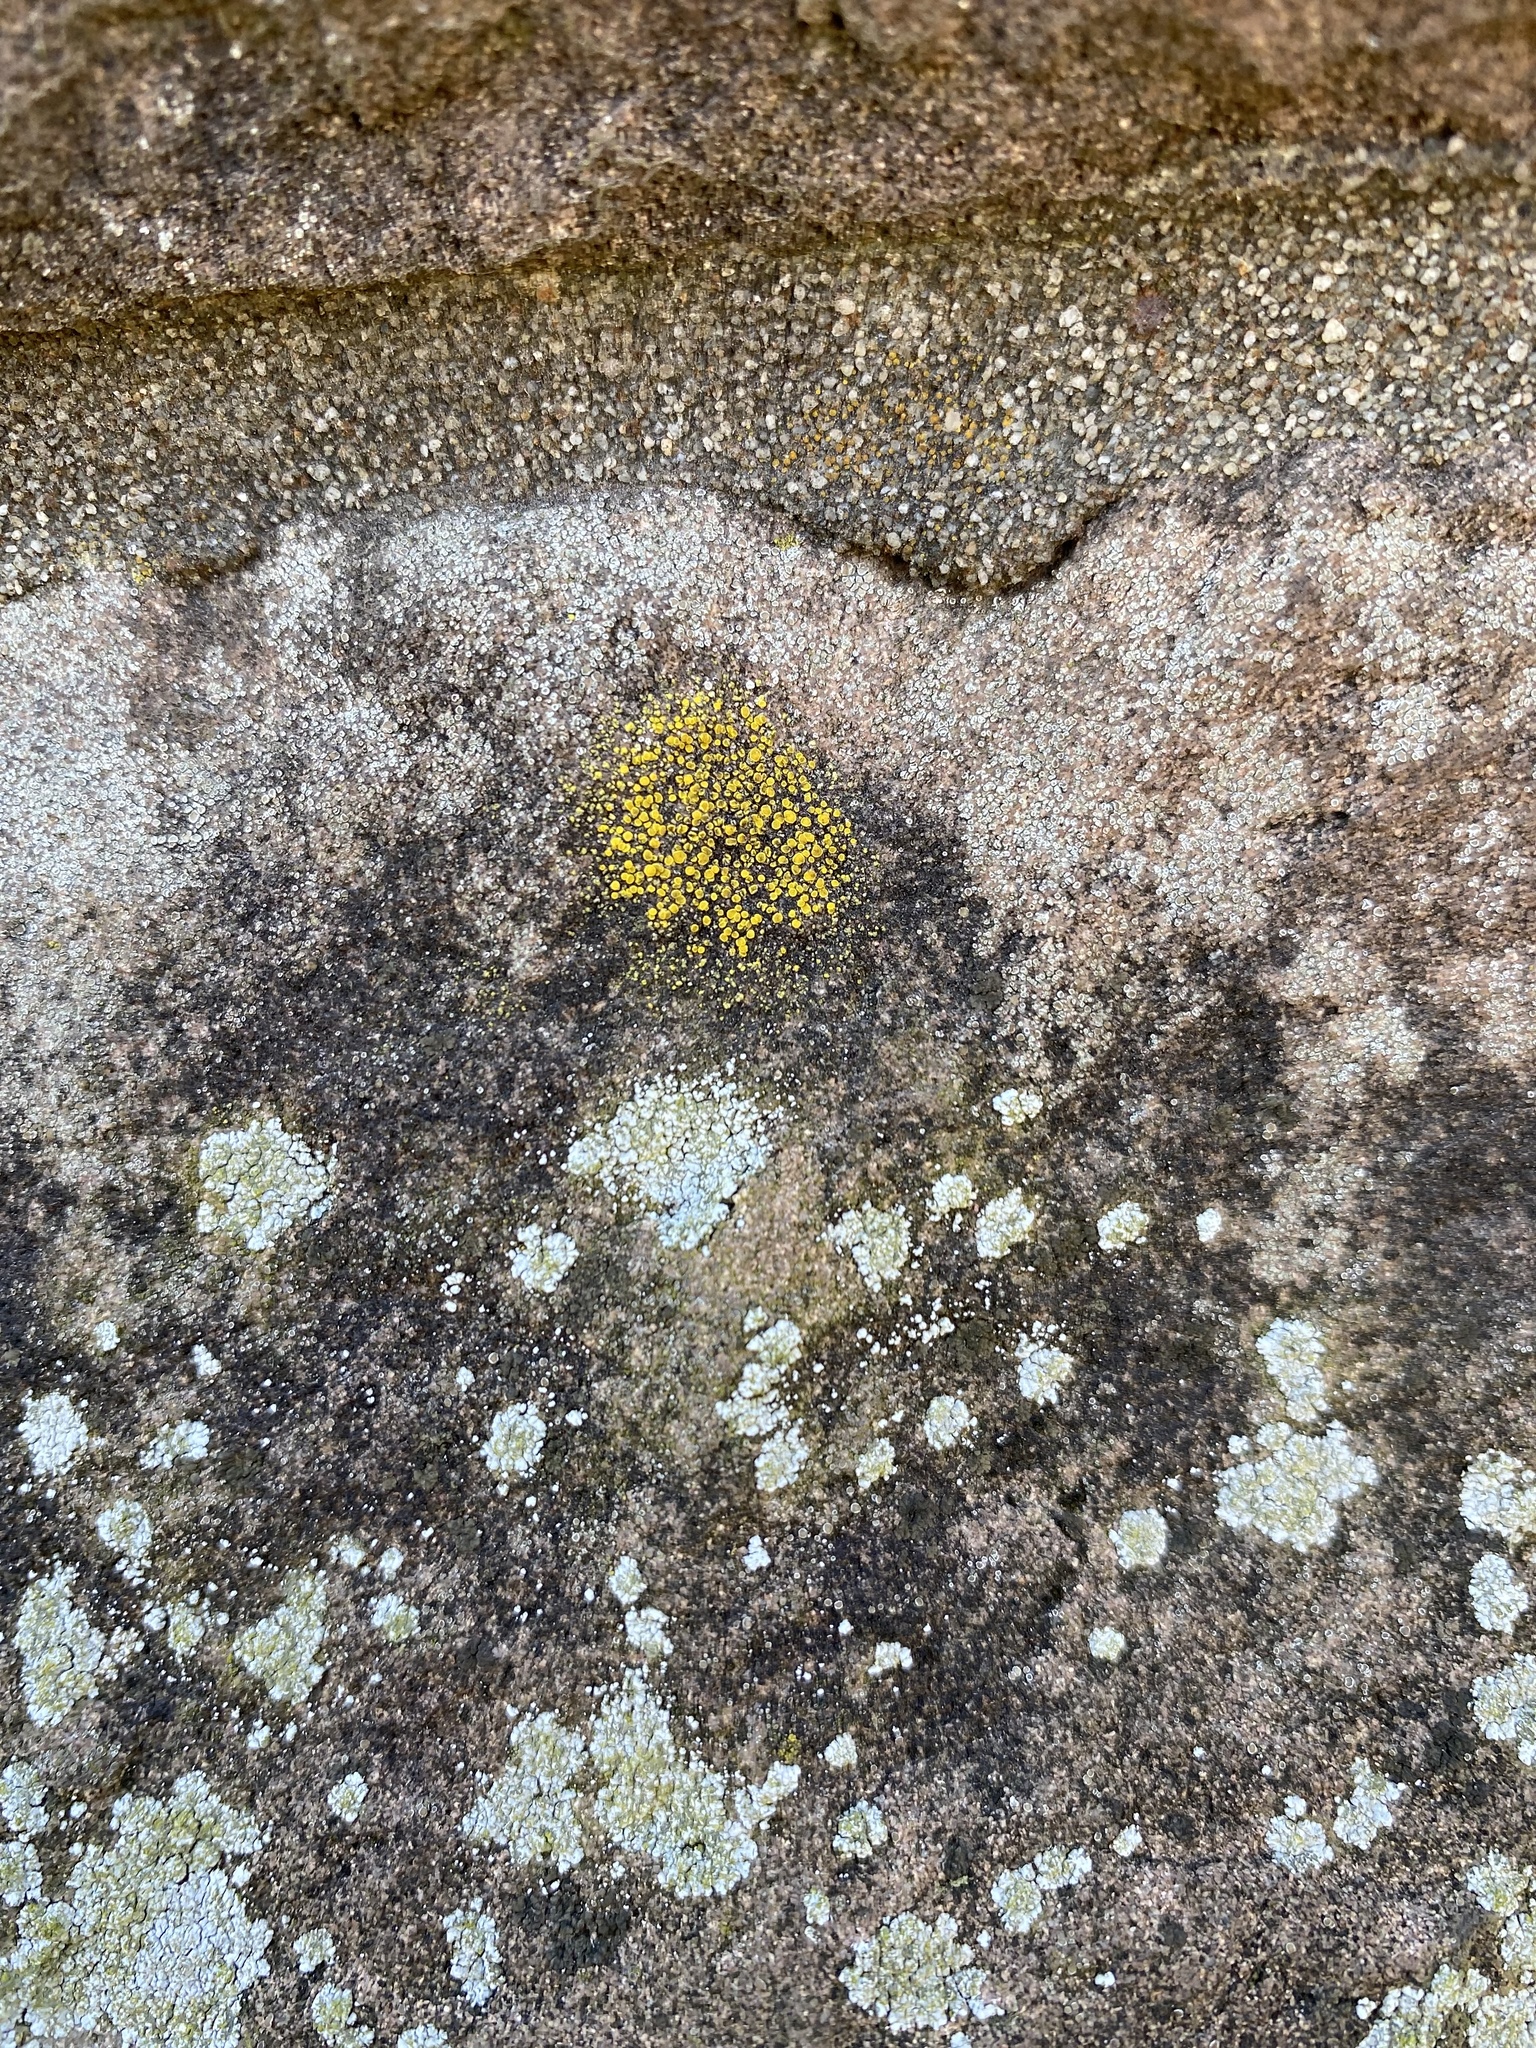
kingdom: Fungi
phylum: Ascomycota
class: Candelariomycetes
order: Candelariales
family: Candelariaceae
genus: Candelariella
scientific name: Candelariella vitellina
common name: Common goldspeck
